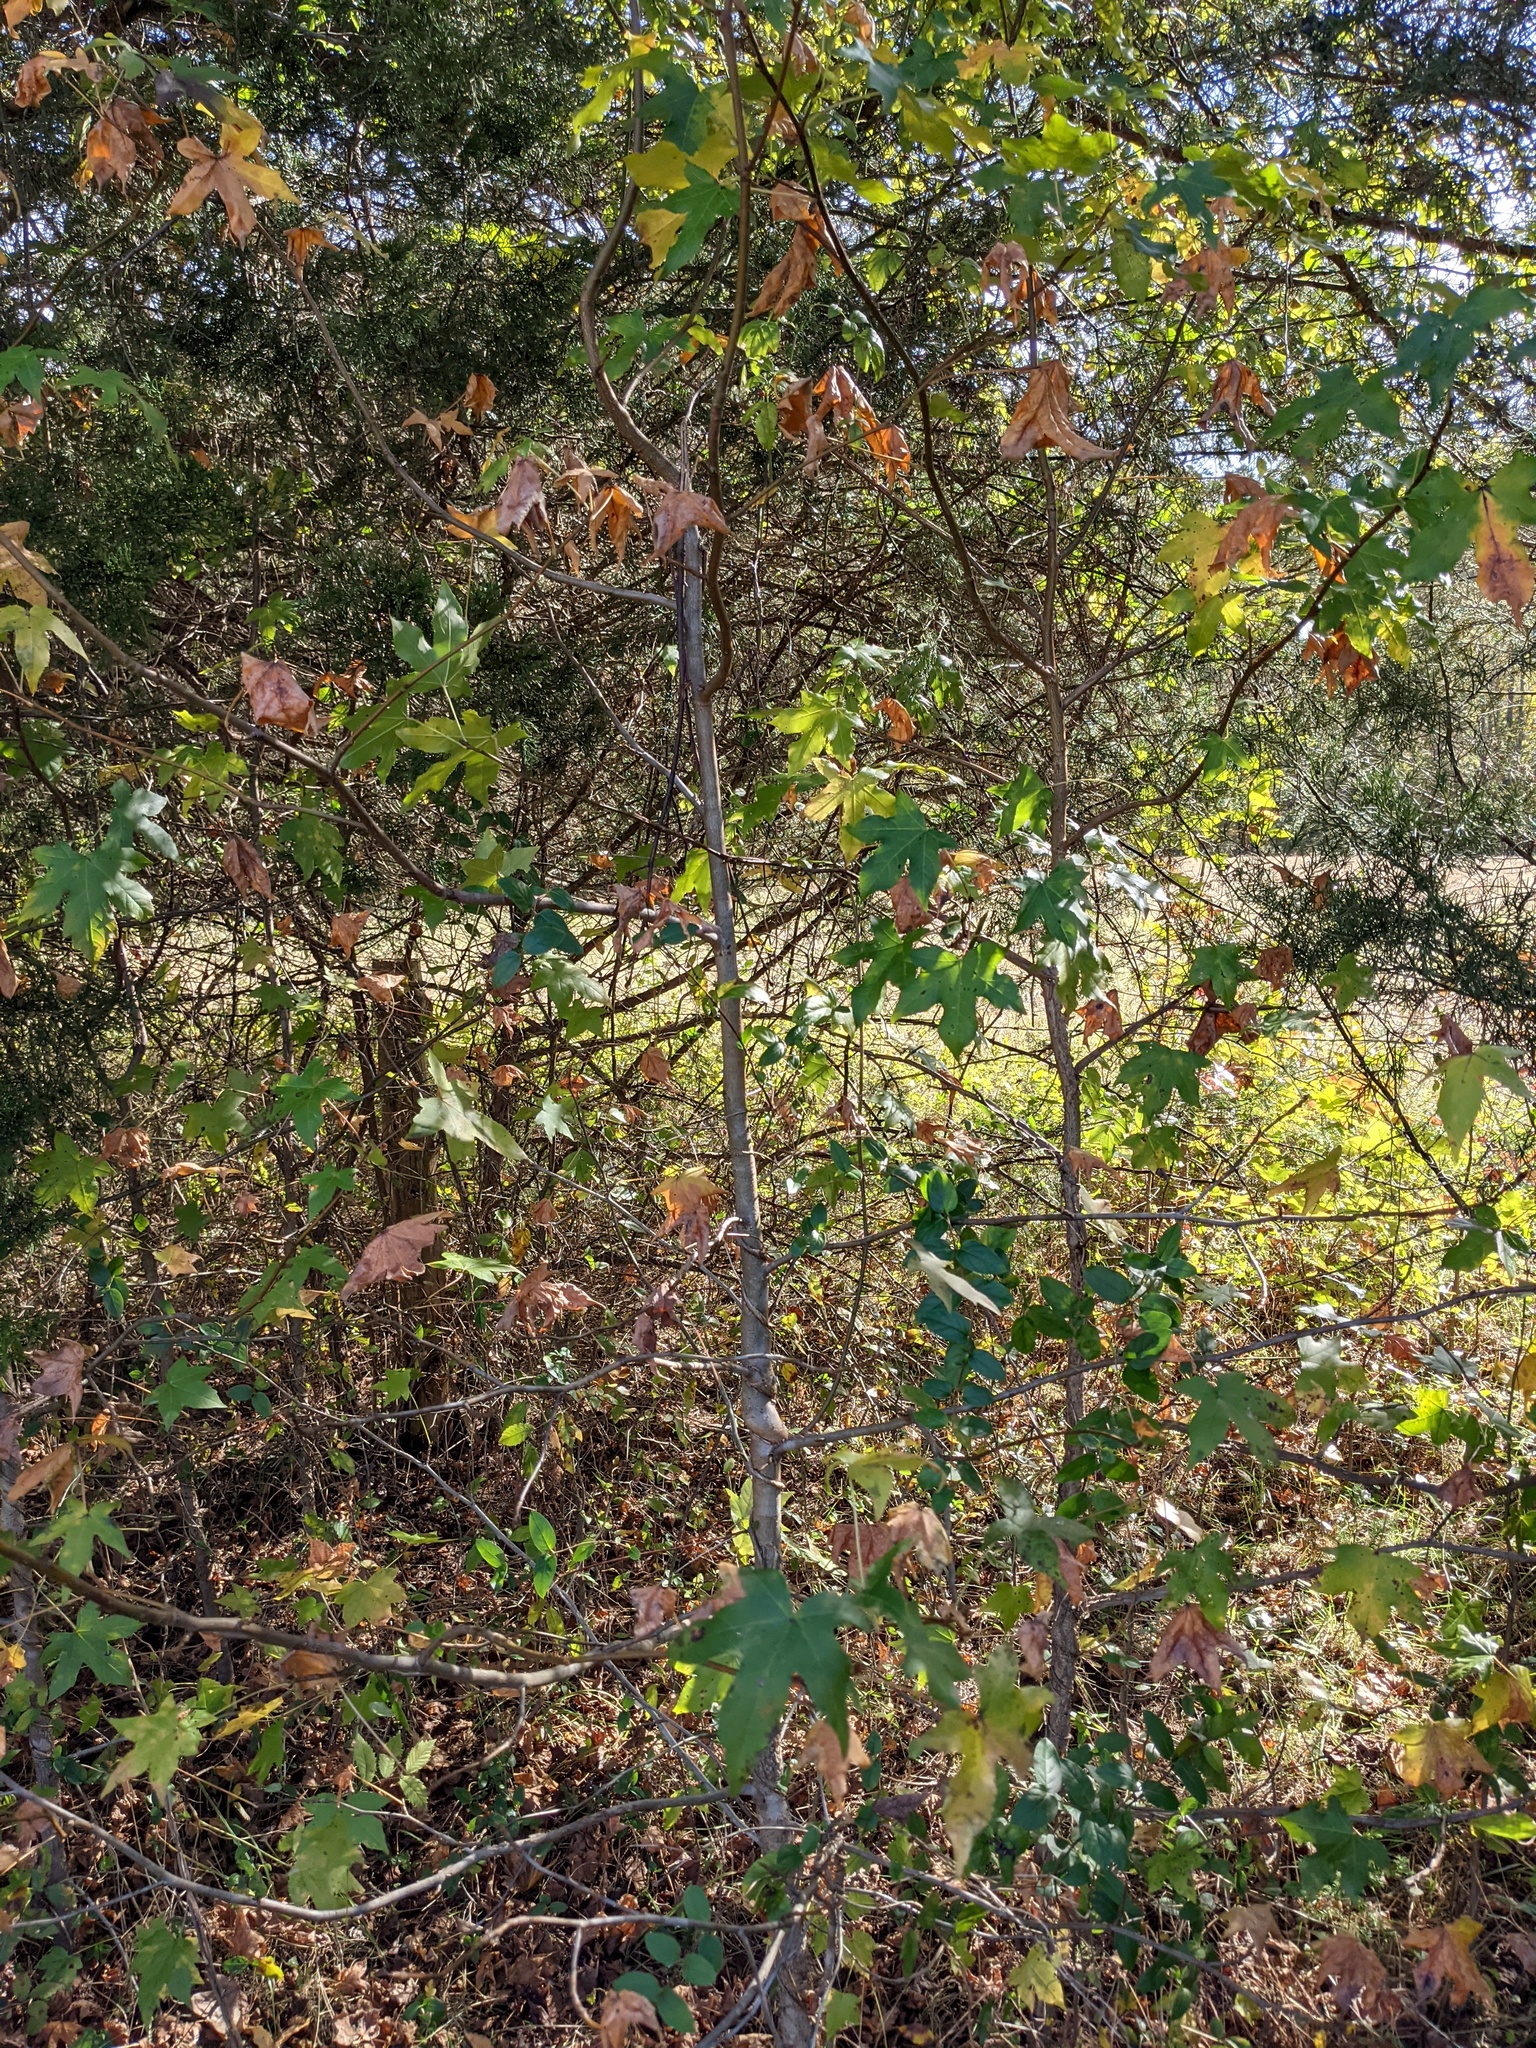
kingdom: Plantae
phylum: Tracheophyta
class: Magnoliopsida
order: Saxifragales
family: Altingiaceae
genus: Liquidambar
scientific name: Liquidambar styraciflua
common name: Sweet gum
